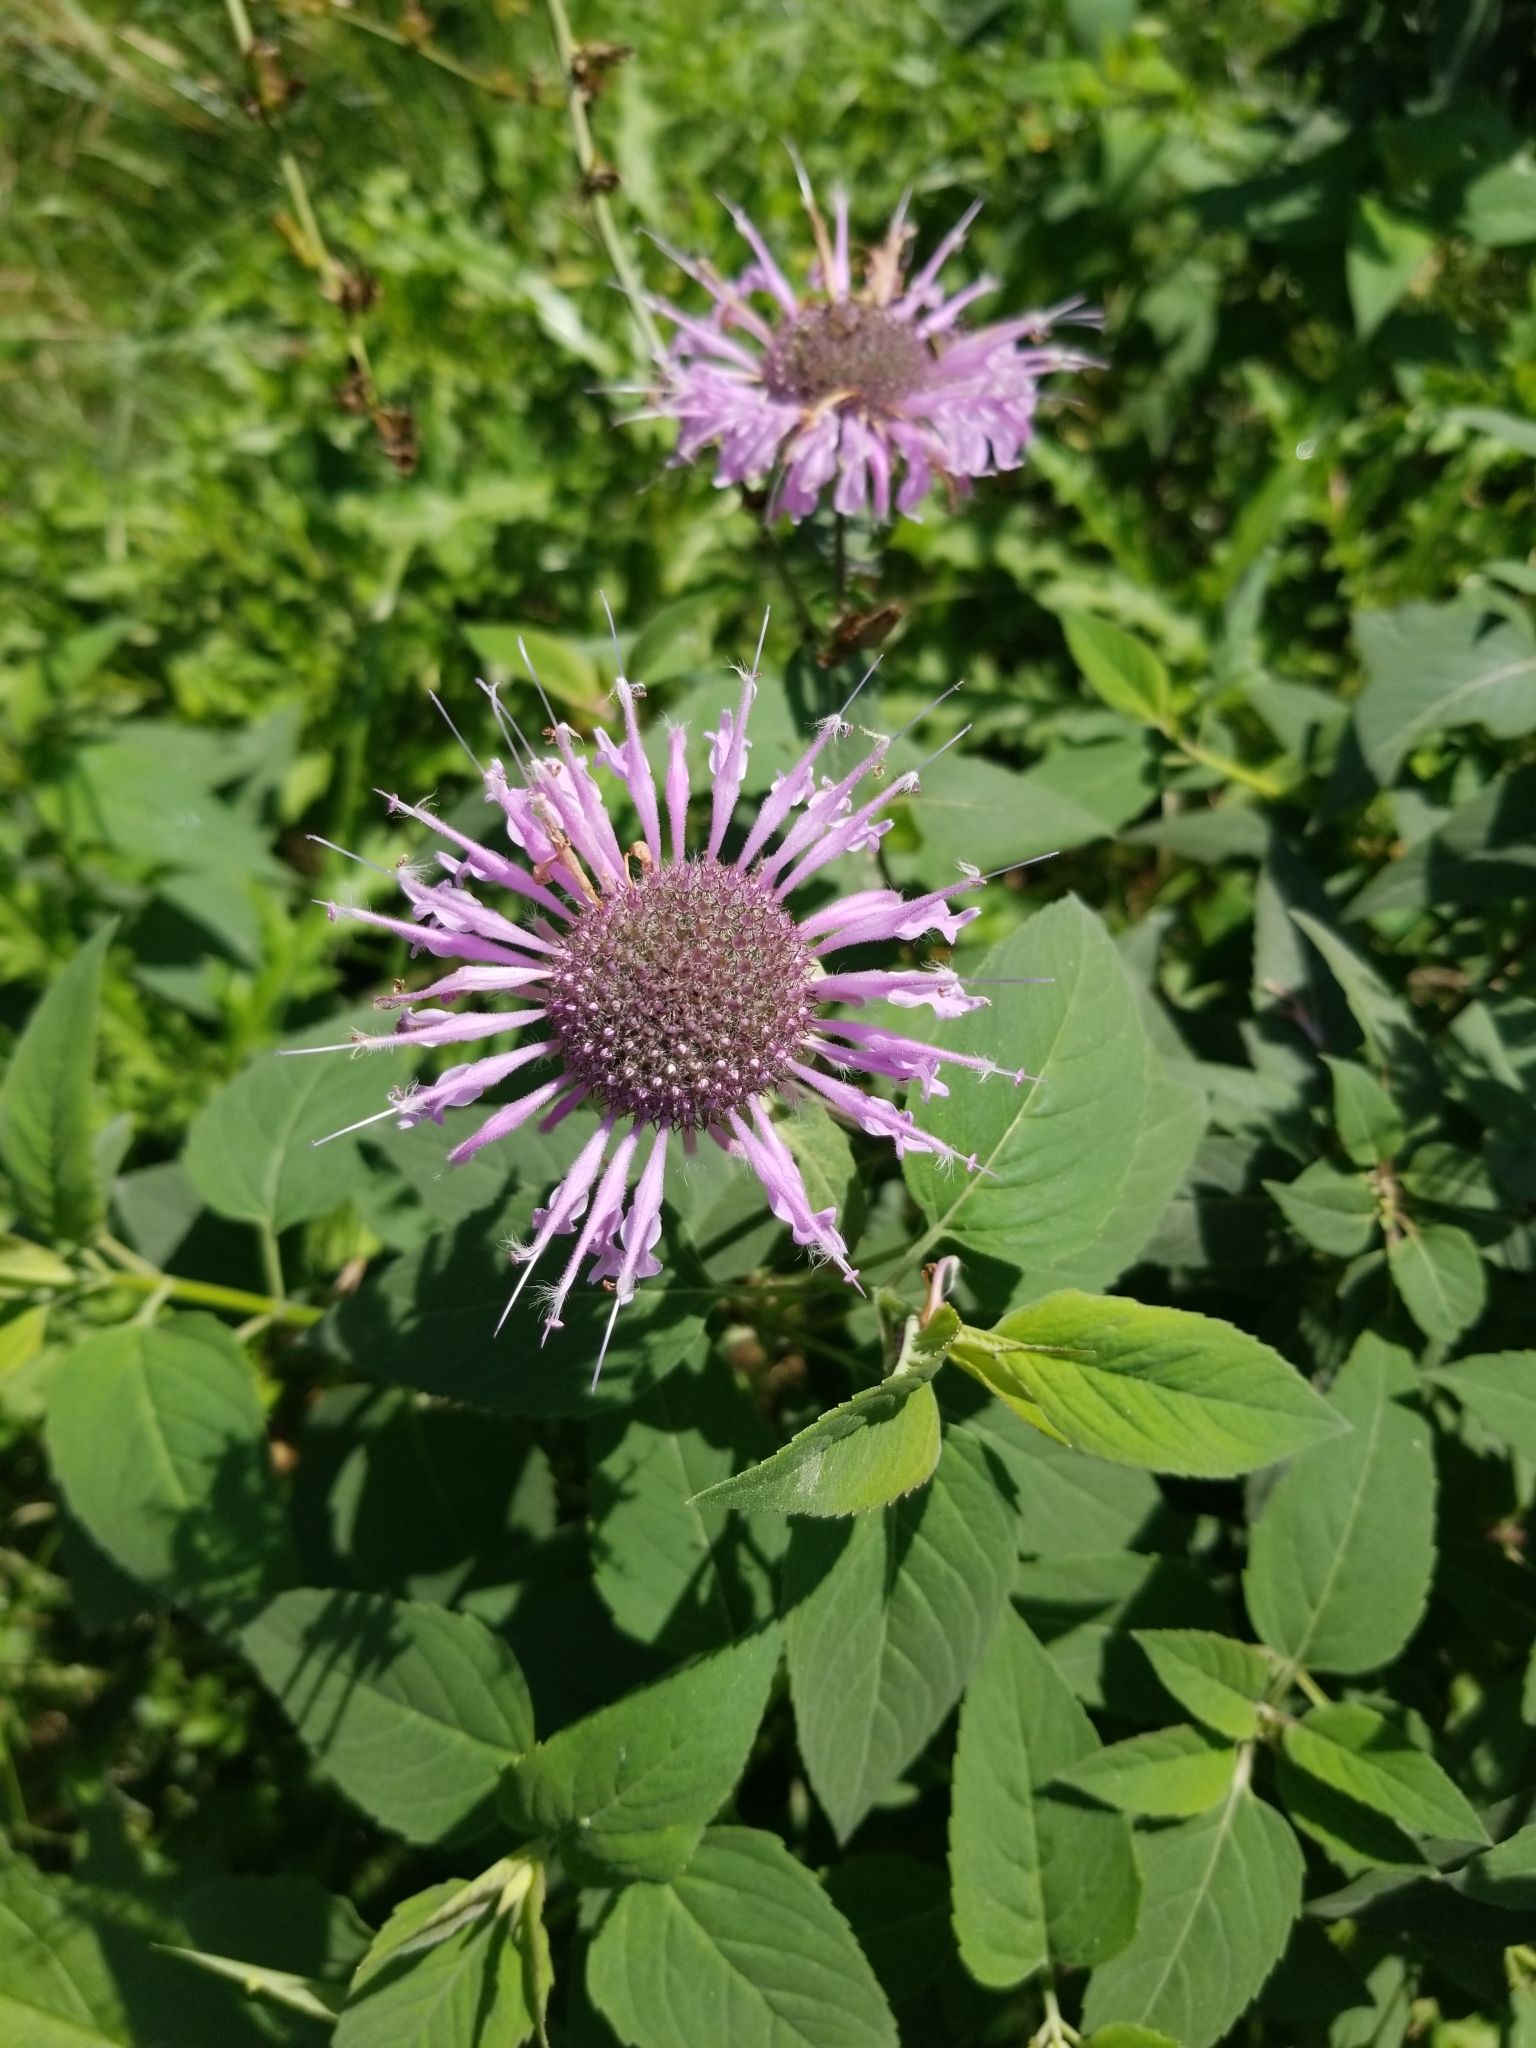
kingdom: Plantae
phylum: Tracheophyta
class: Magnoliopsida
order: Lamiales
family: Lamiaceae
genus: Monarda
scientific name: Monarda fistulosa
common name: Purple beebalm
